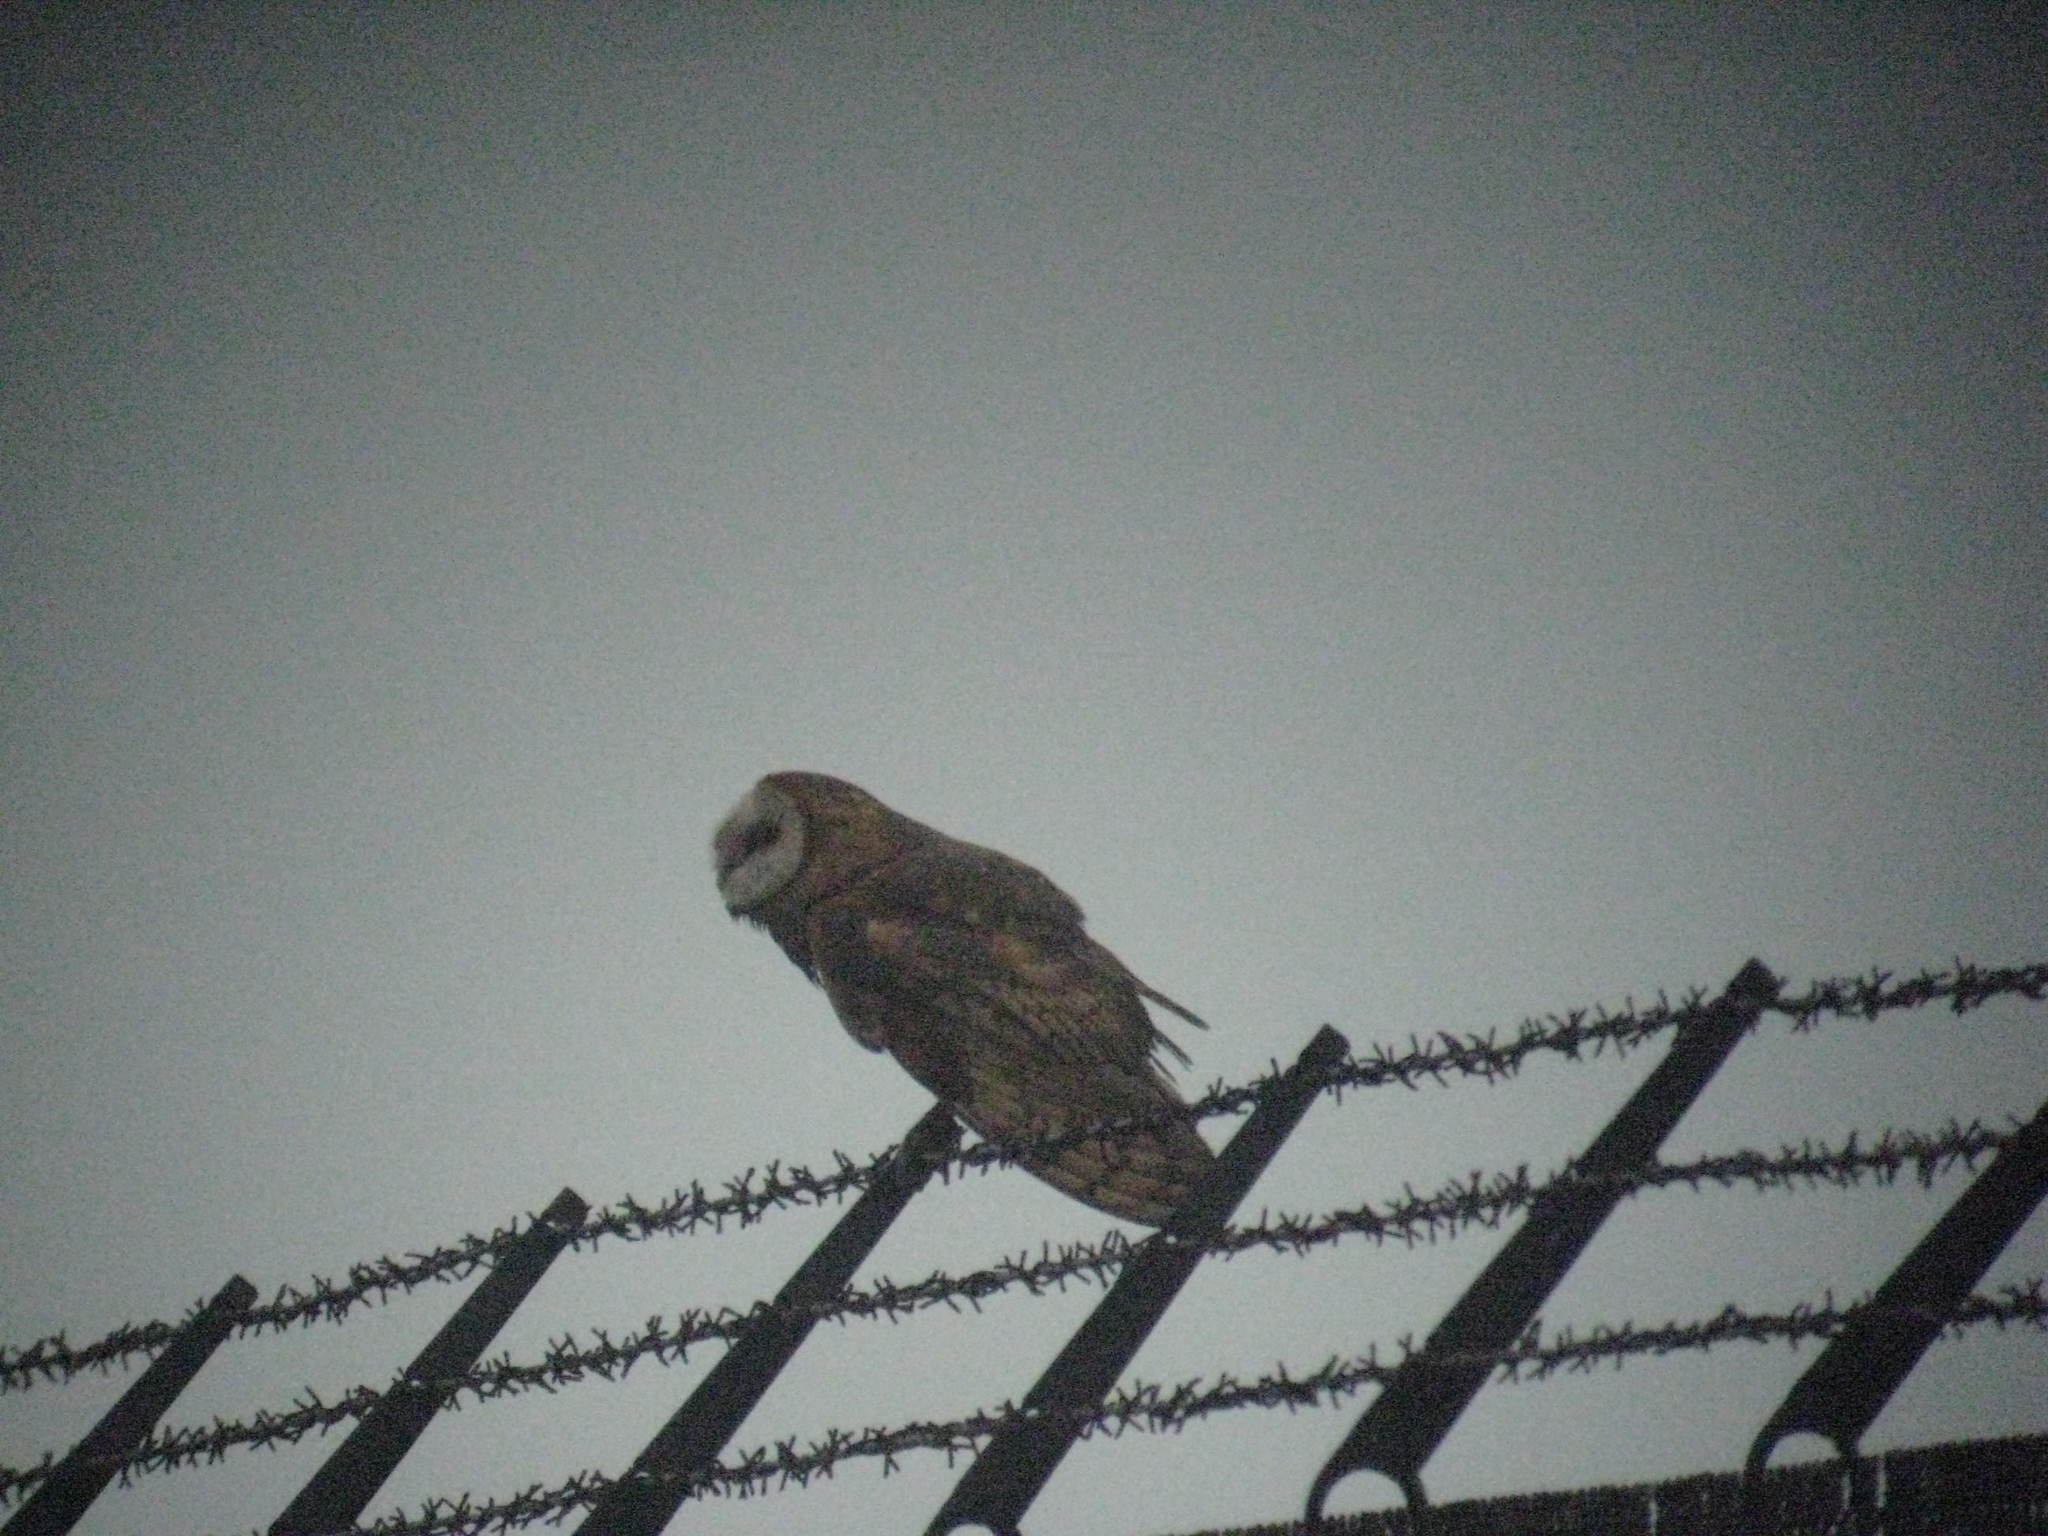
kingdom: Animalia
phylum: Chordata
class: Aves
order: Strigiformes
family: Tytonidae
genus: Tyto
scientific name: Tyto alba
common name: Barn owl
